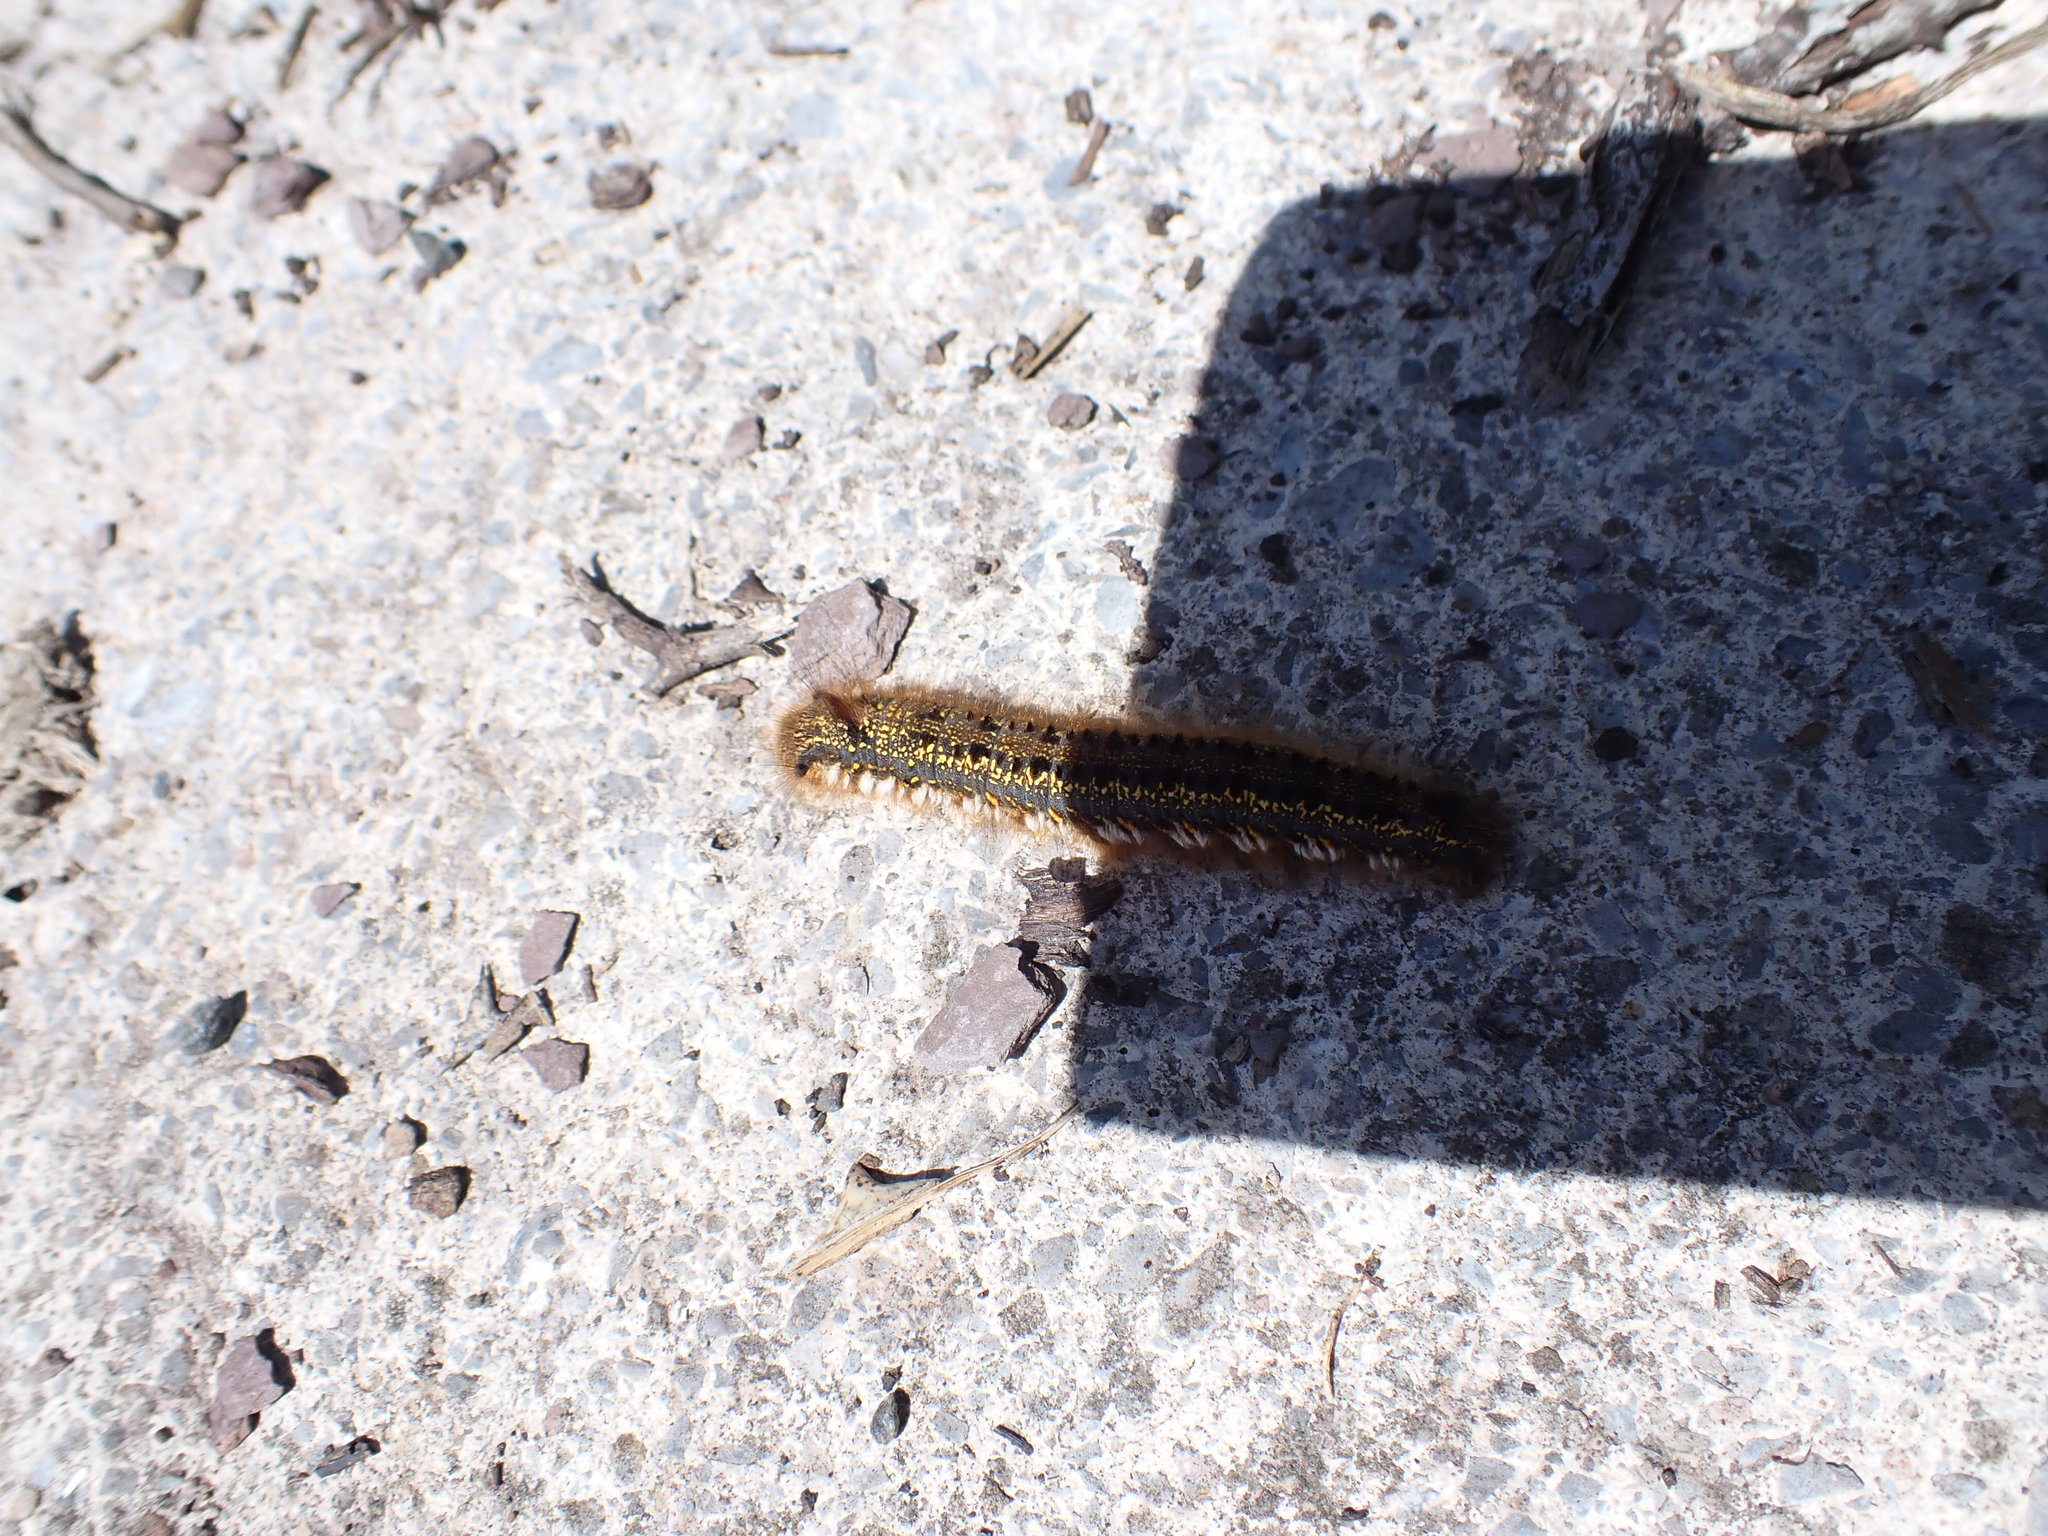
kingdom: Animalia
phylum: Arthropoda
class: Insecta
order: Lepidoptera
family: Lasiocampidae
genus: Euthrix
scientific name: Euthrix potatoria
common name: Drinker
